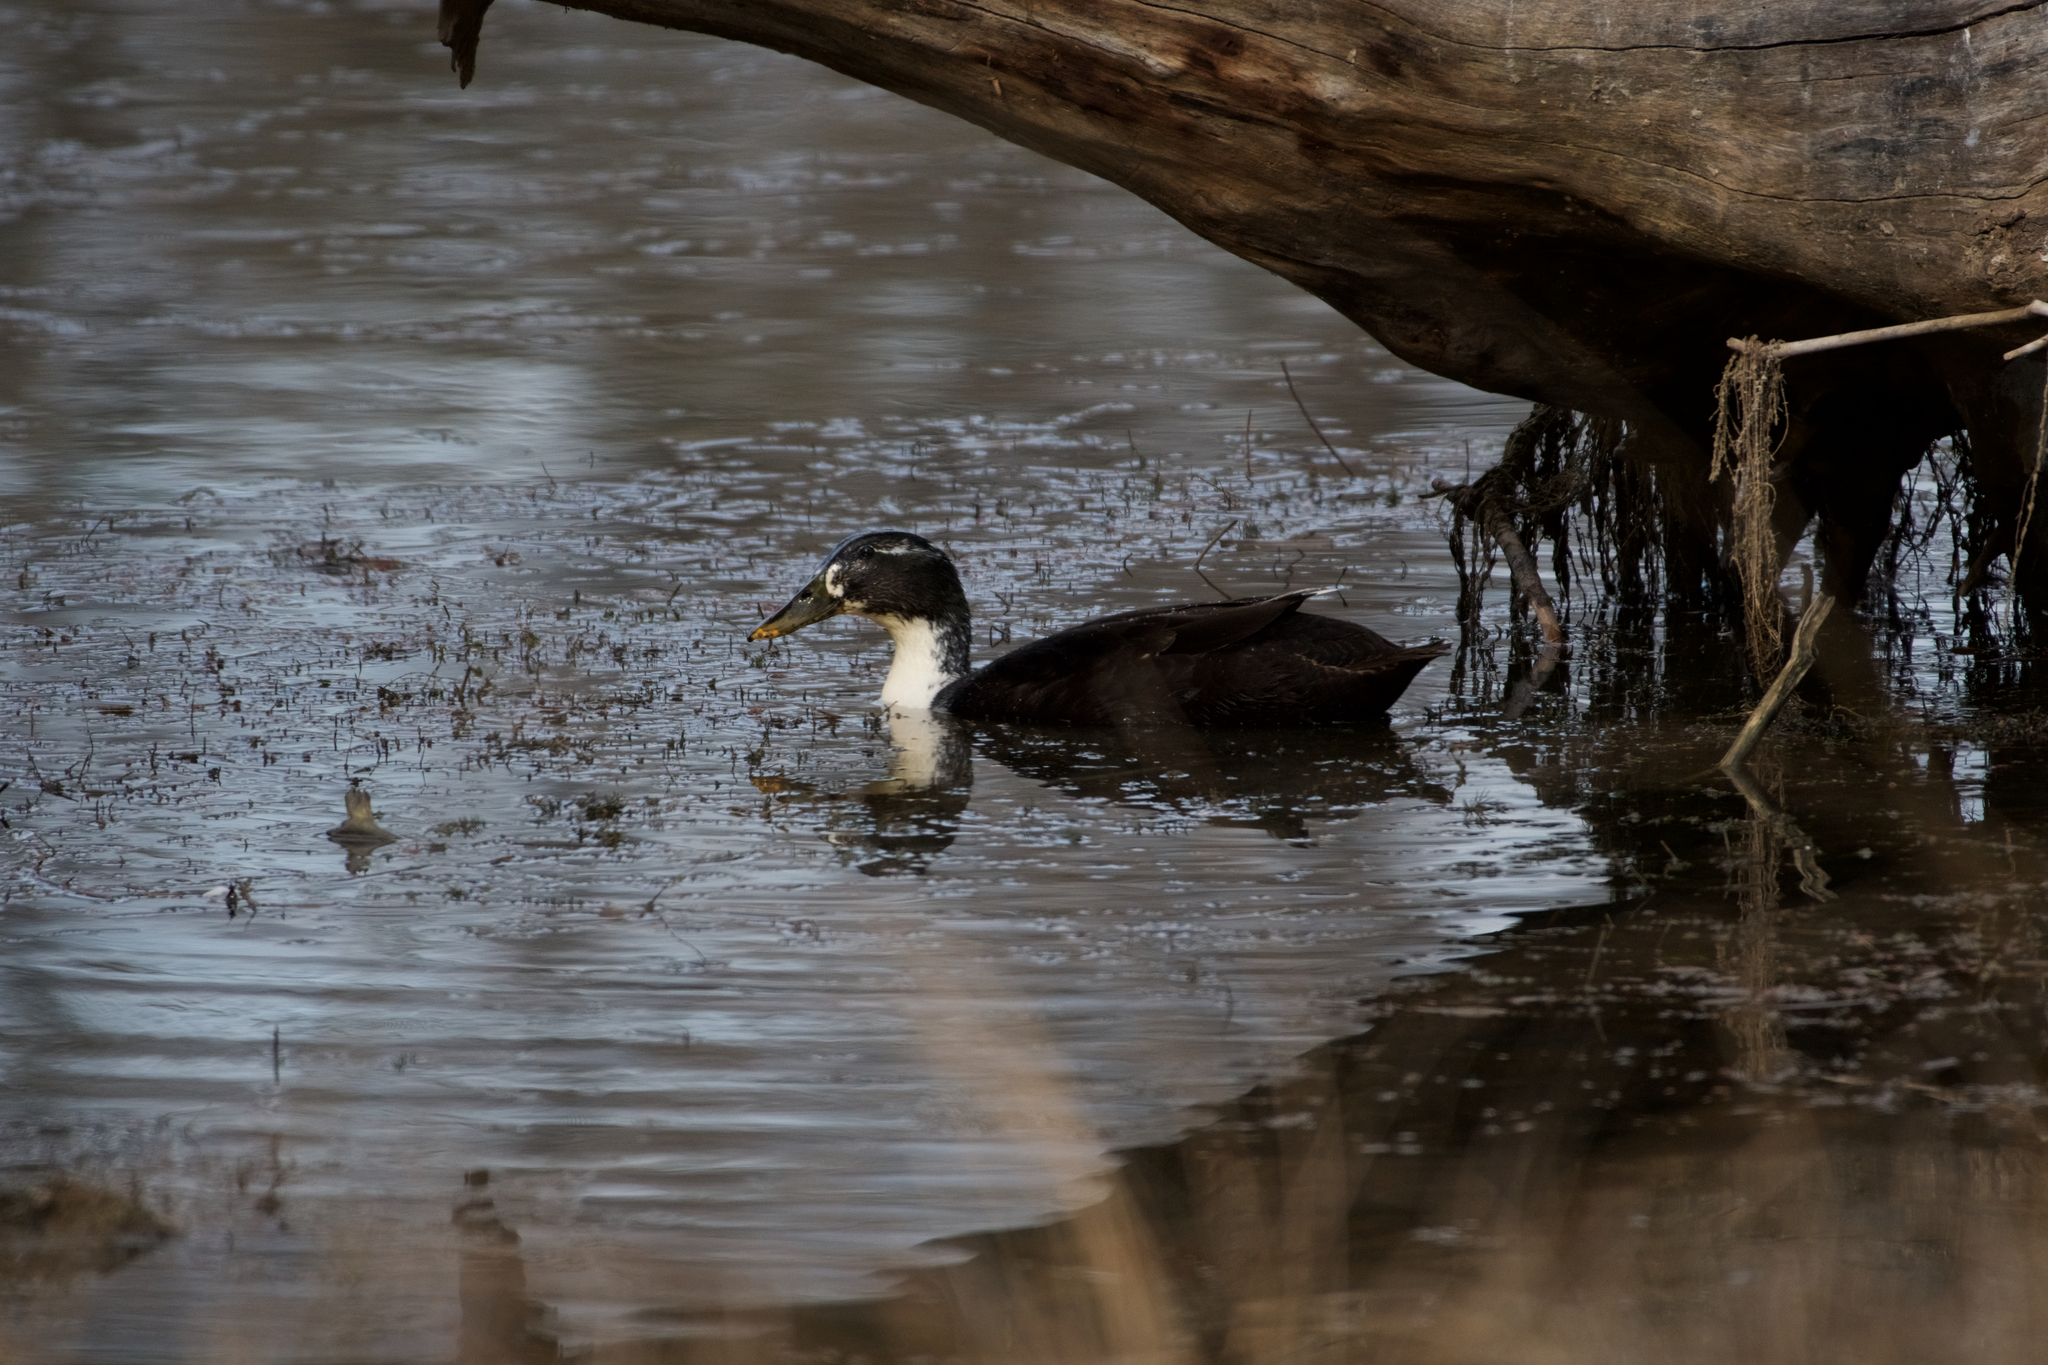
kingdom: Animalia
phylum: Chordata
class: Aves
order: Anseriformes
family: Anatidae
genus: Anas
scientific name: Anas platyrhynchos
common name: Mallard
